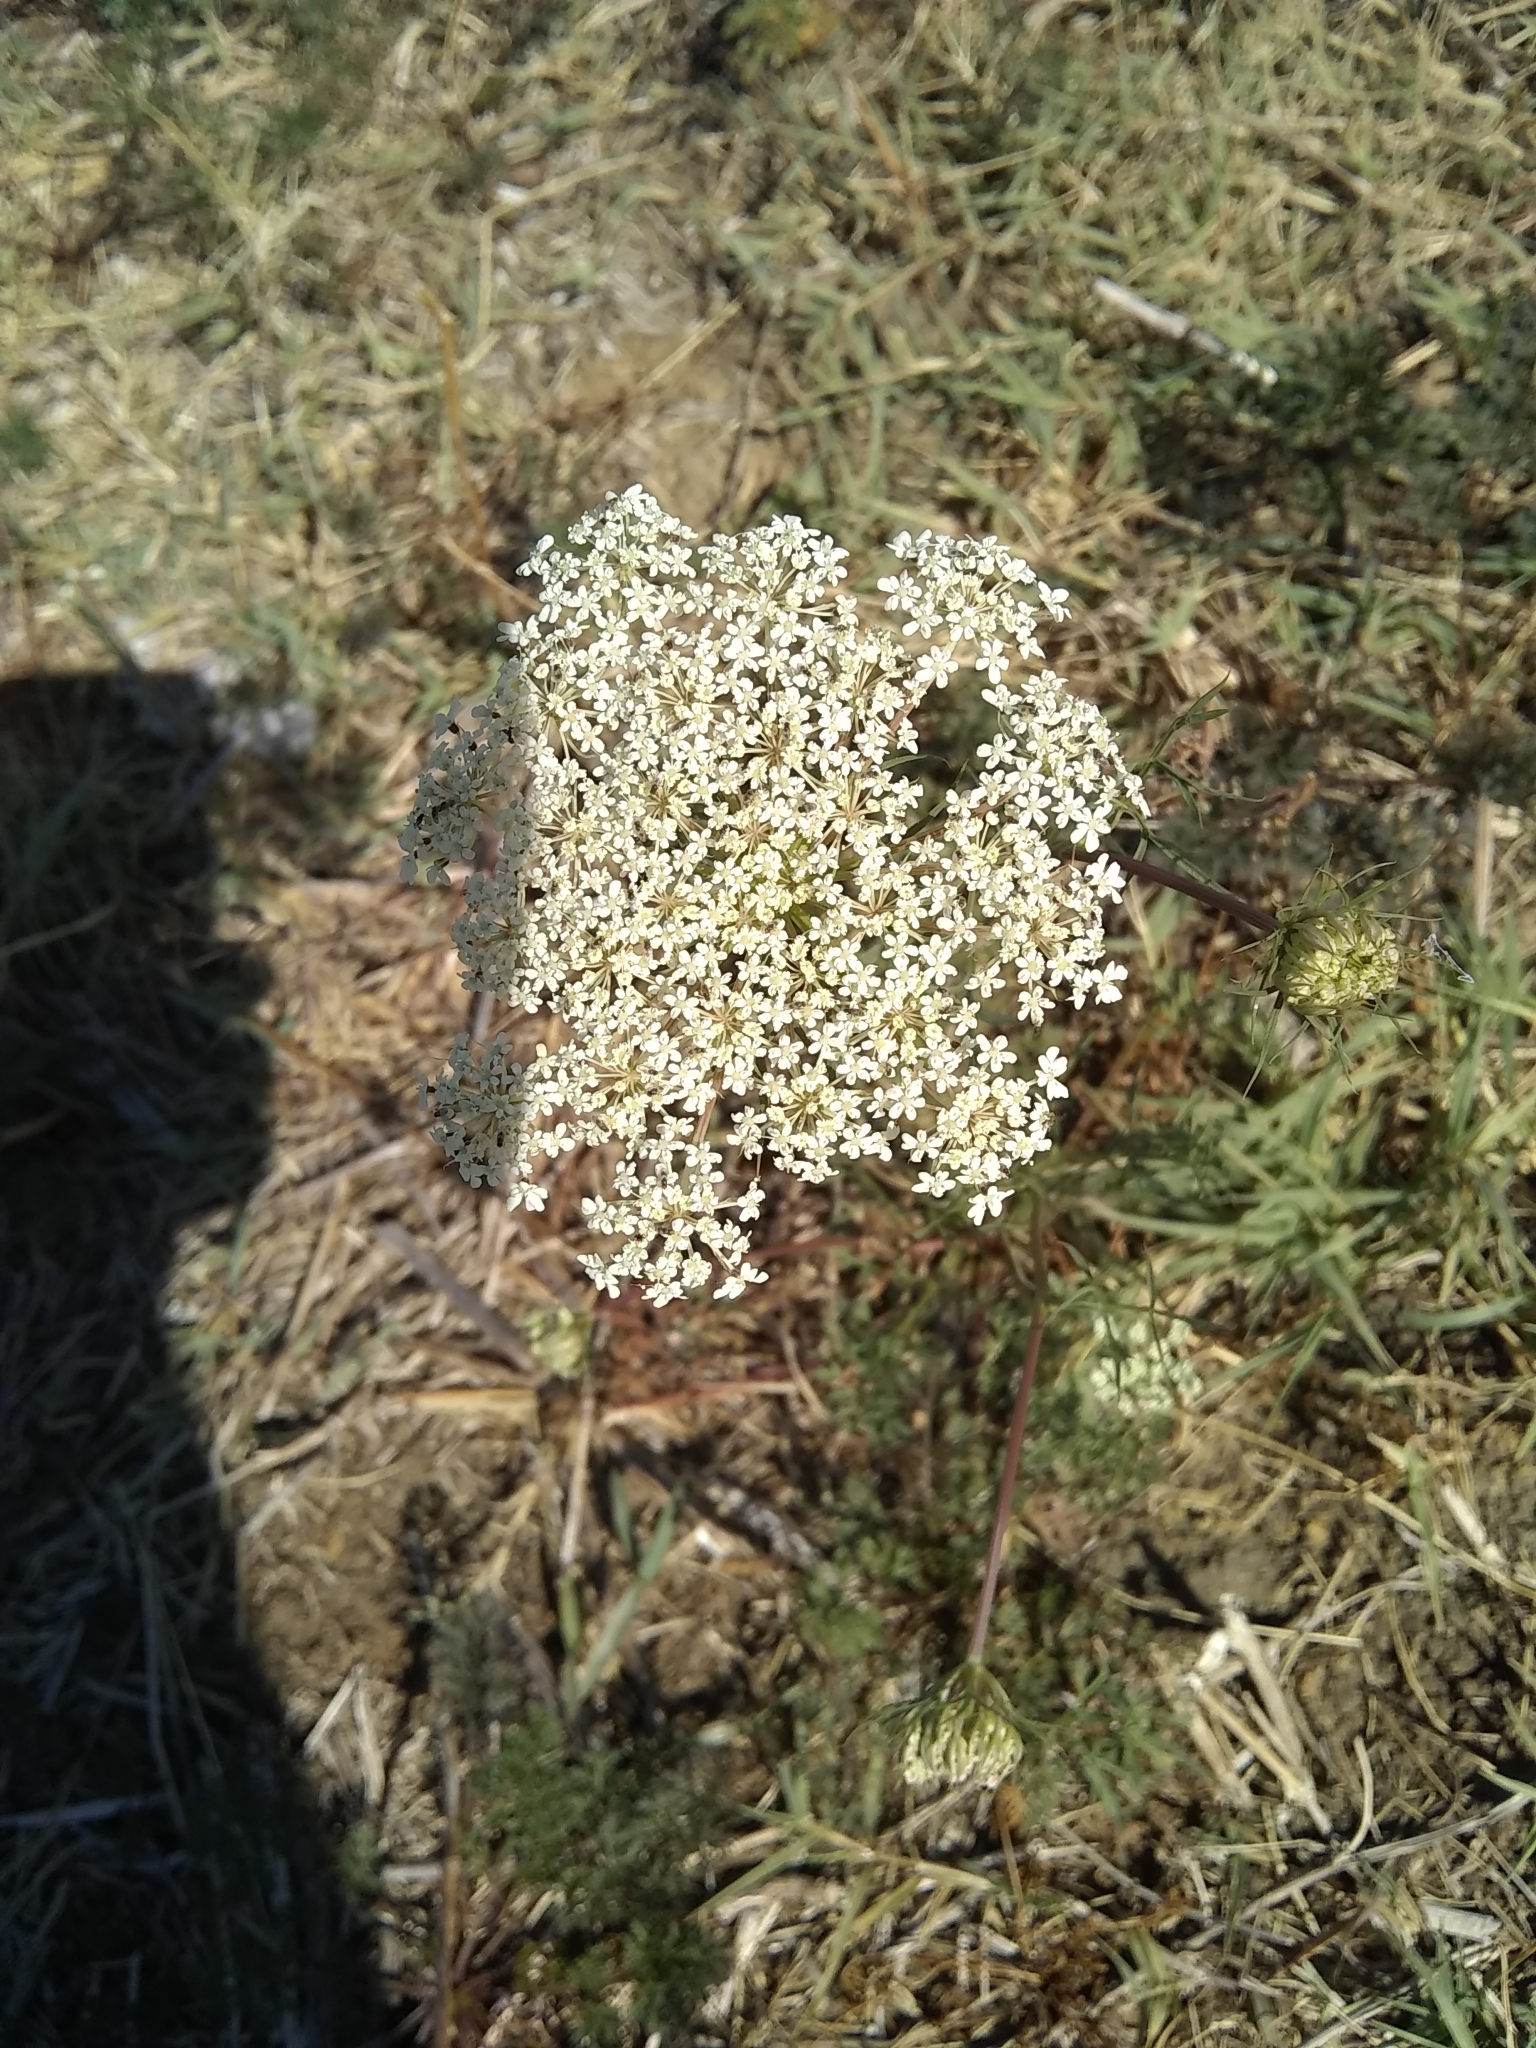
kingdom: Plantae
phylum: Tracheophyta
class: Magnoliopsida
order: Apiales
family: Apiaceae
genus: Daucus
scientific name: Daucus carota
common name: Wild carrot
